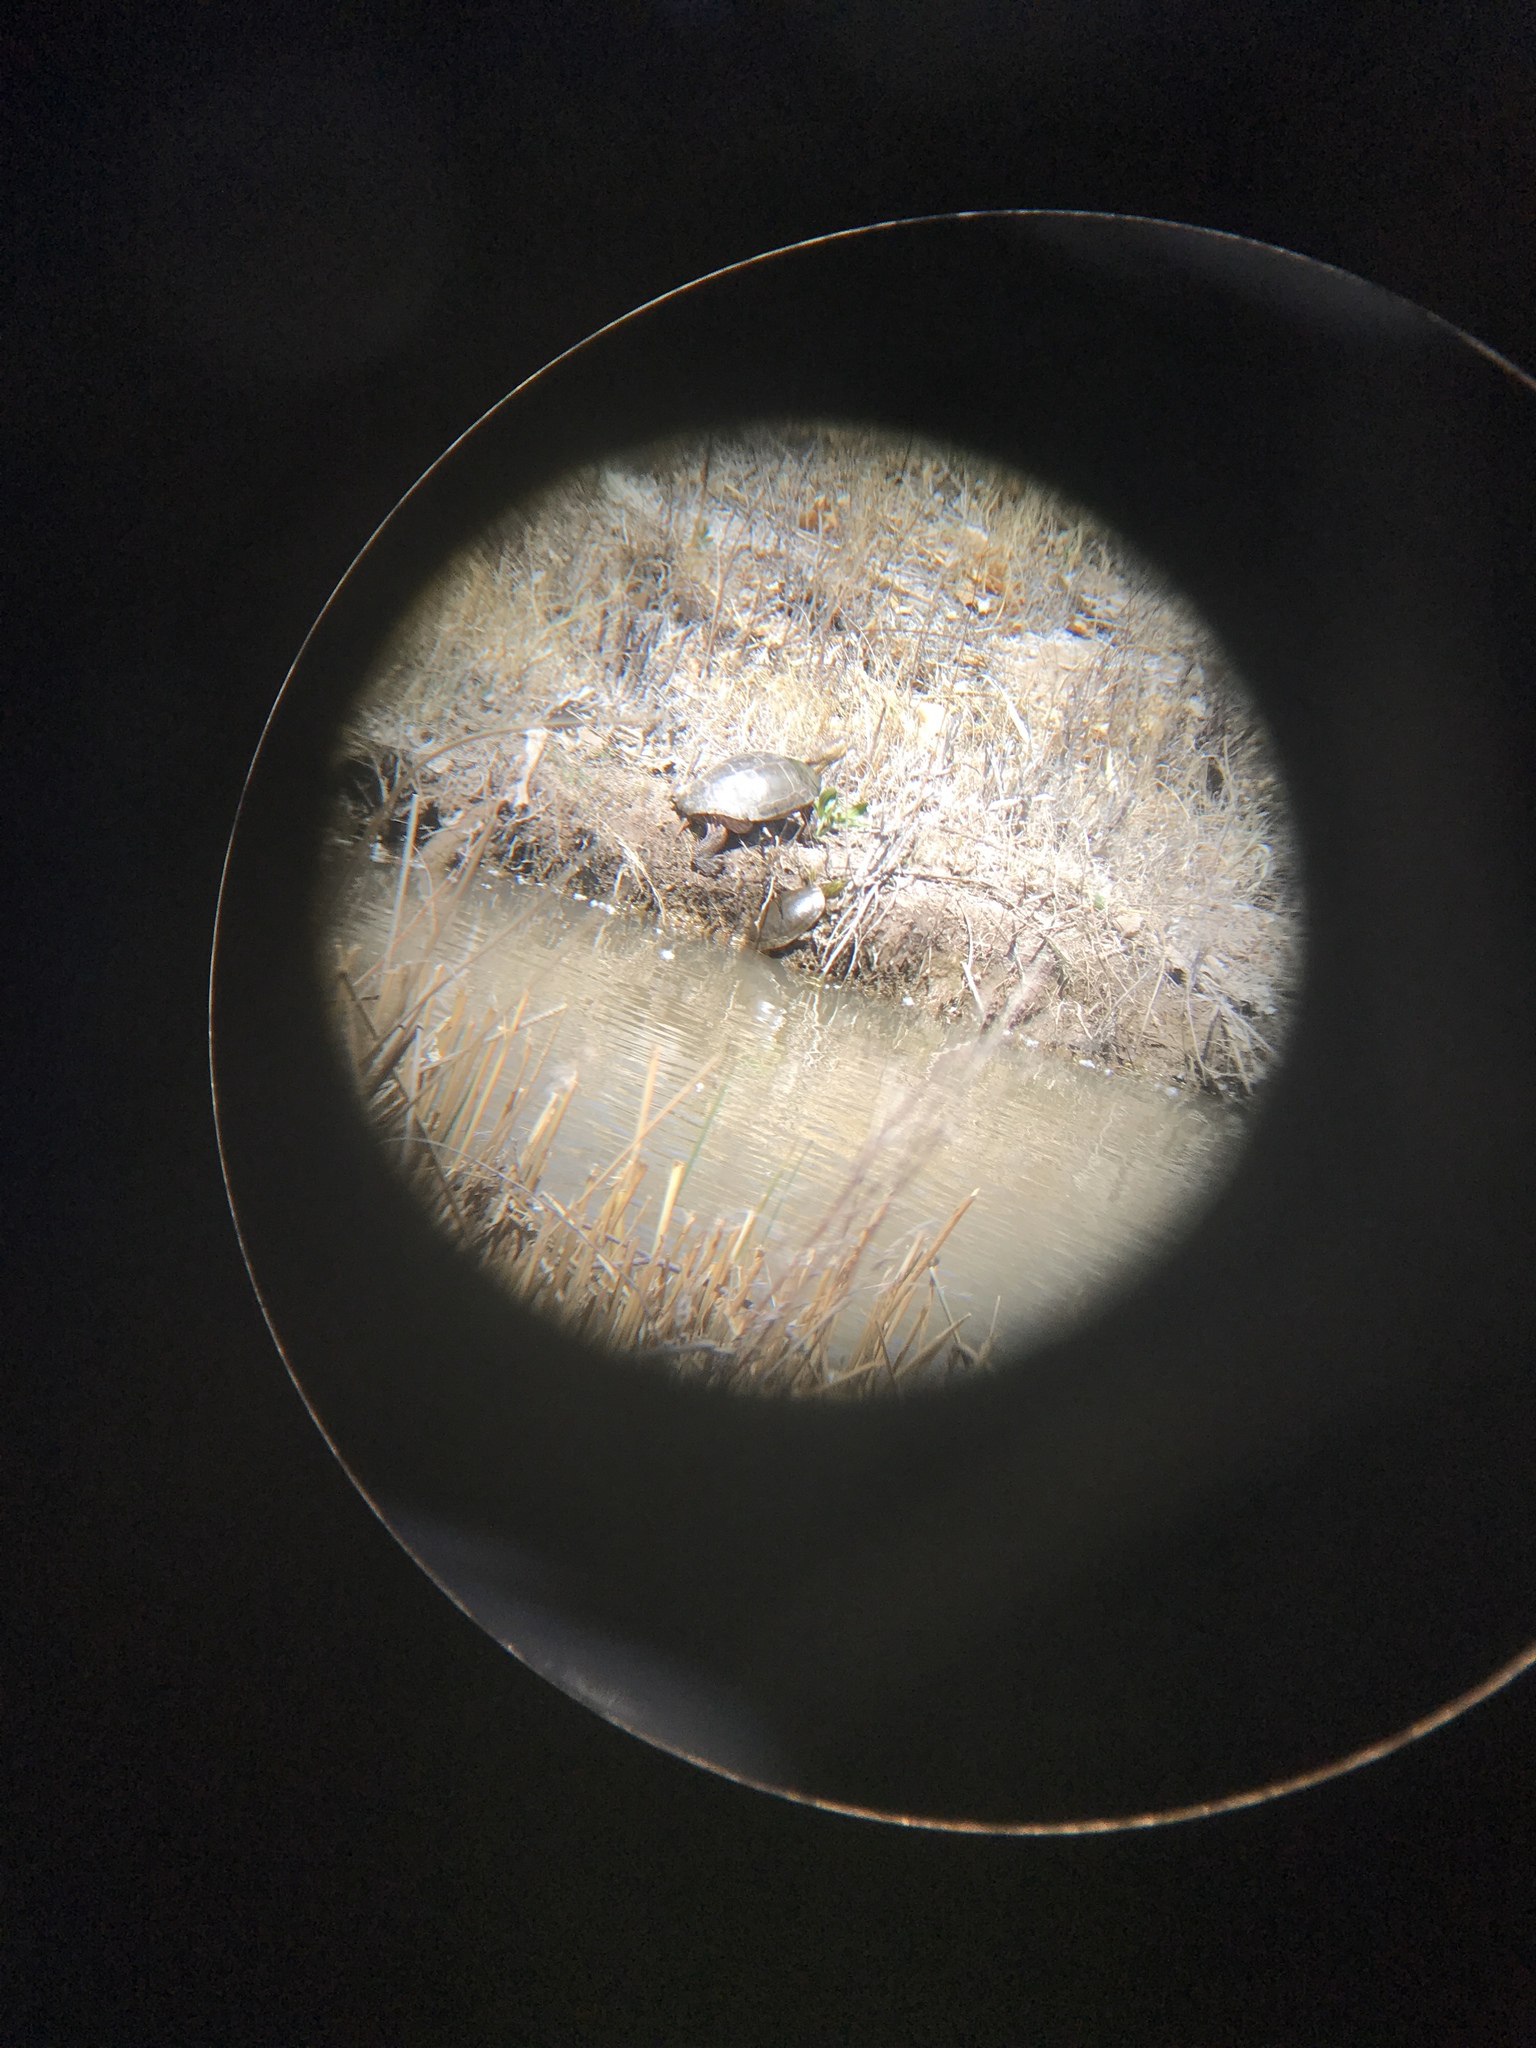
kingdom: Animalia
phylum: Chordata
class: Testudines
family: Emydidae
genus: Trachemys
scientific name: Trachemys gaigeae
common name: Big bend slider
